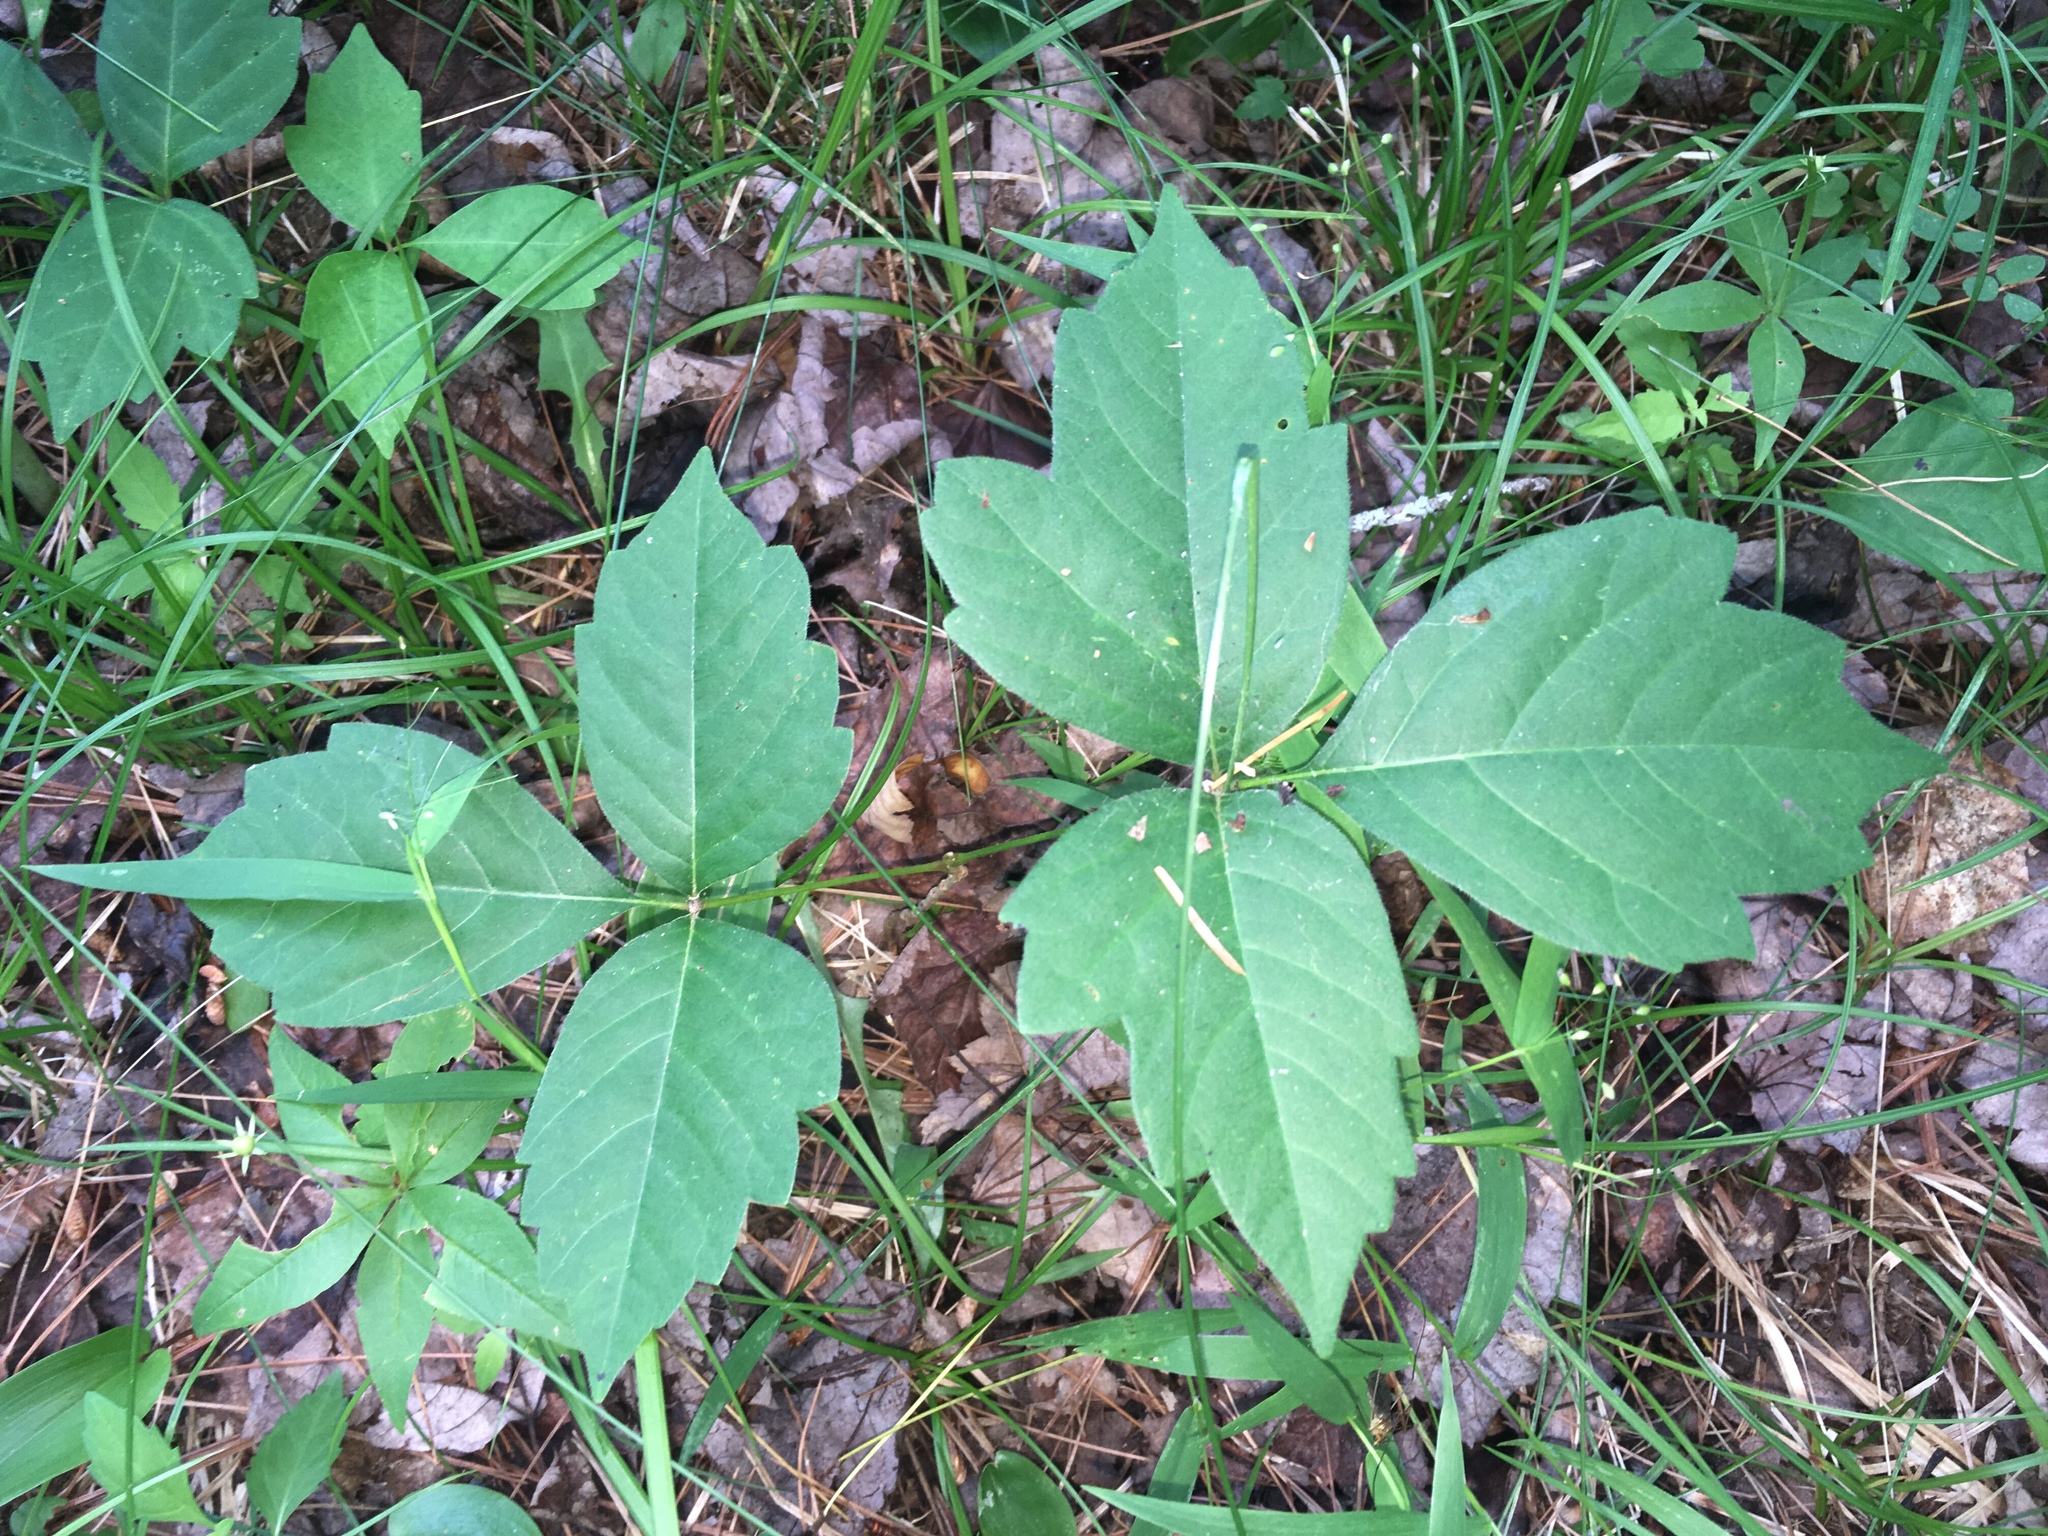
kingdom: Plantae
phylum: Tracheophyta
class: Magnoliopsida
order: Sapindales
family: Anacardiaceae
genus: Toxicodendron
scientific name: Toxicodendron radicans
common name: Poison ivy
